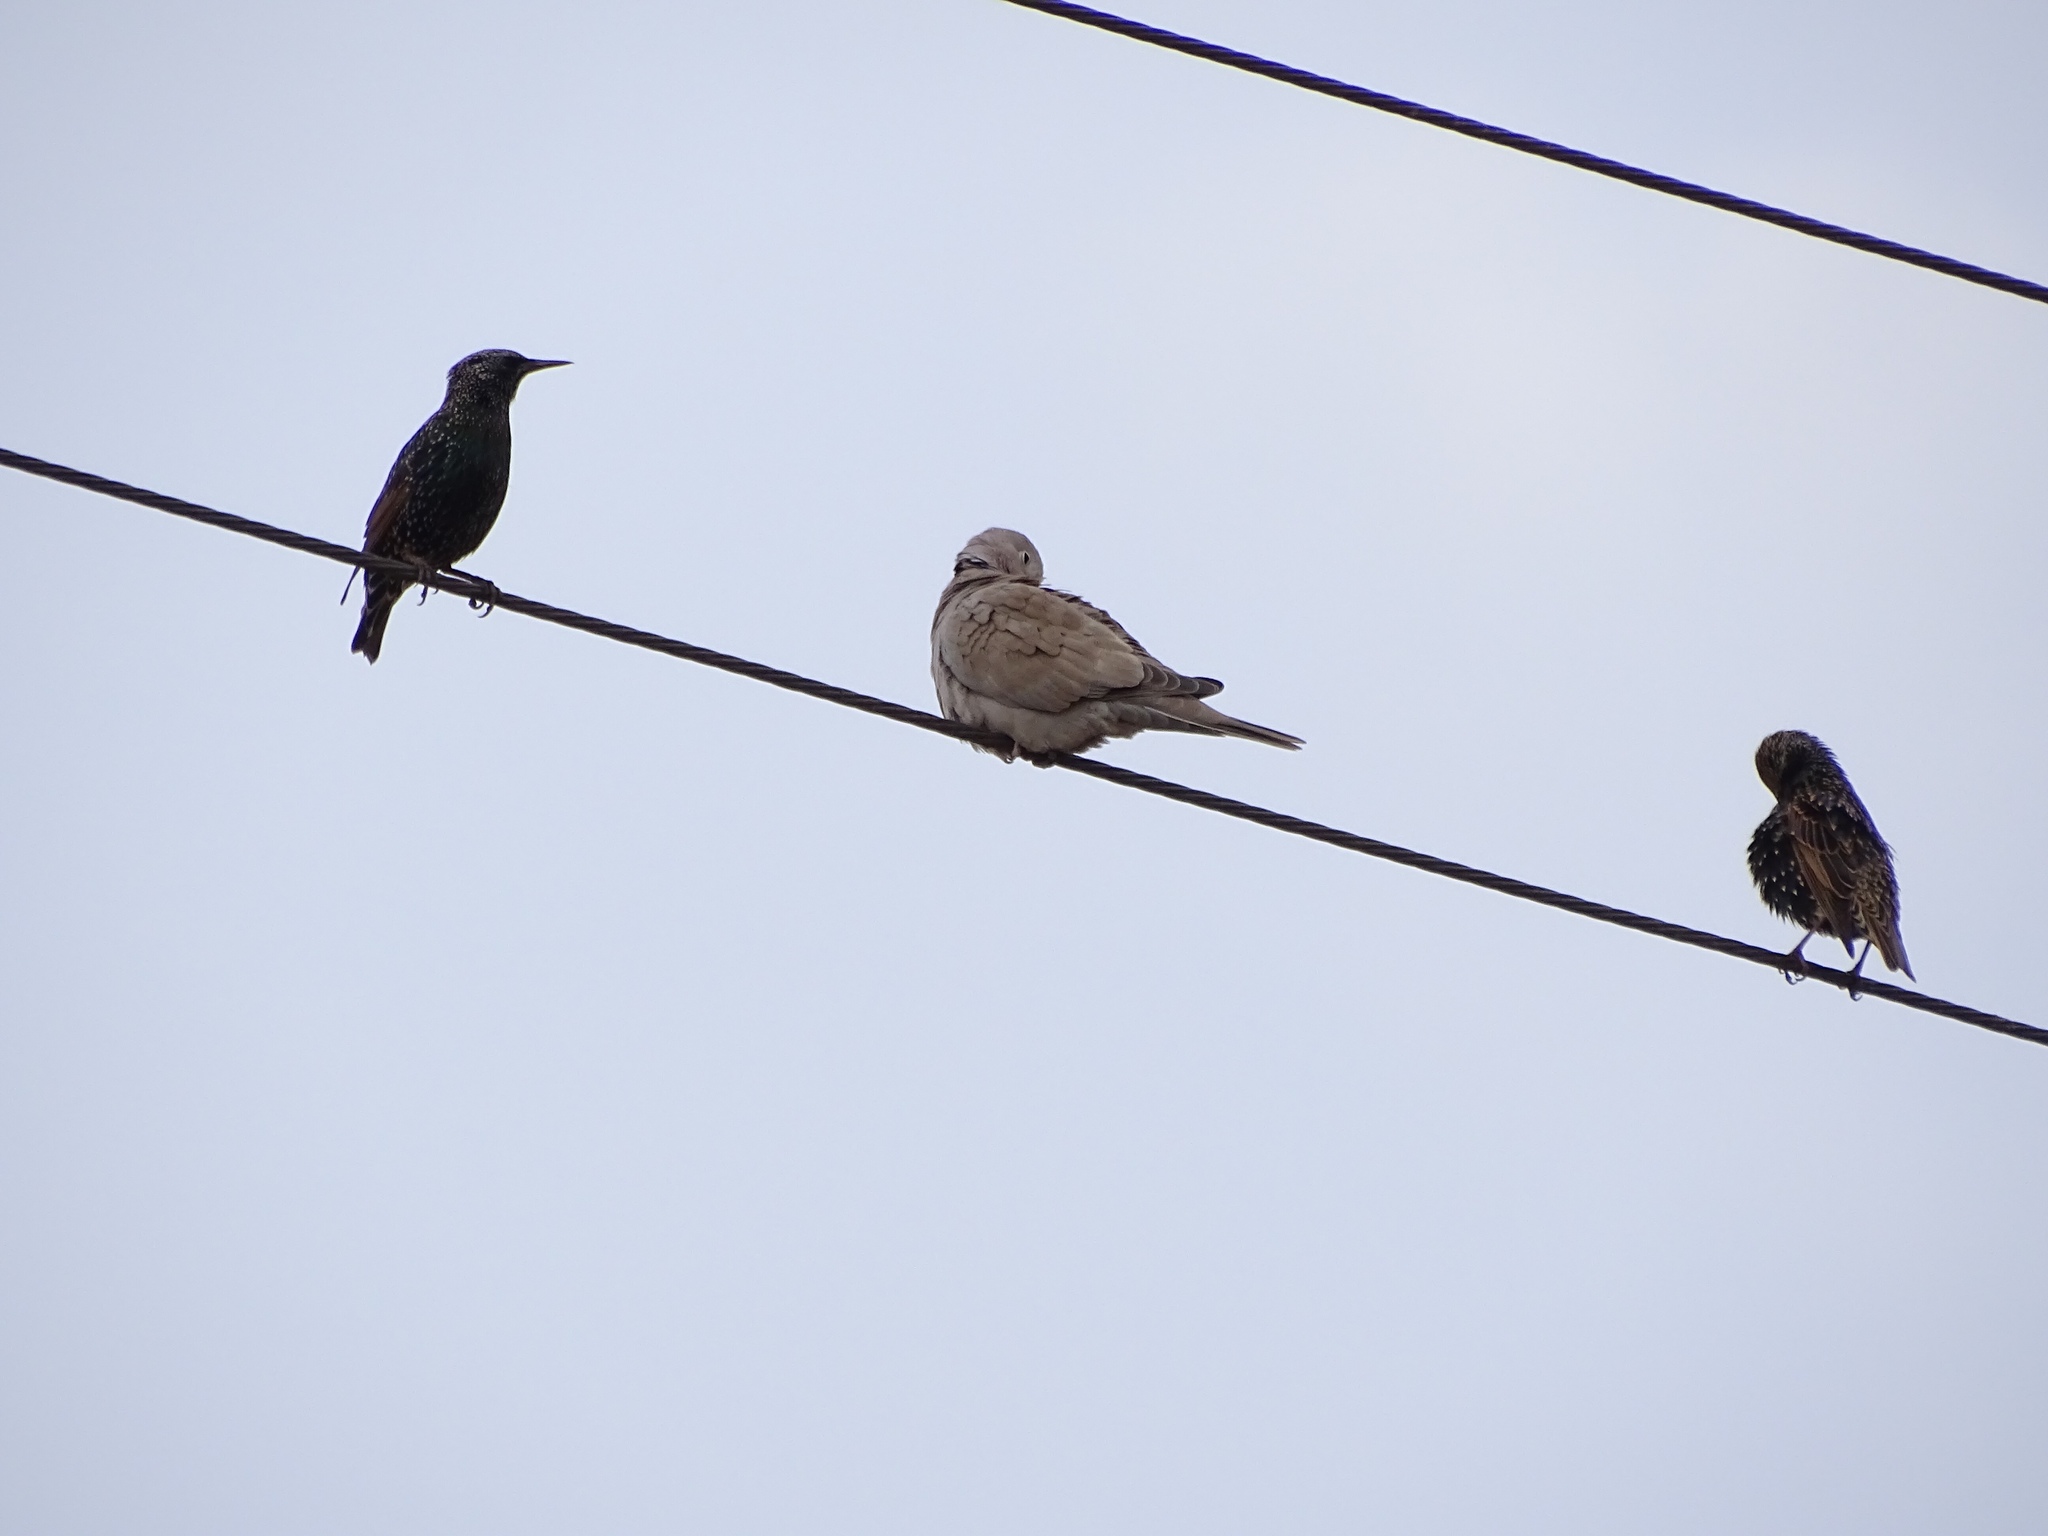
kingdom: Animalia
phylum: Chordata
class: Aves
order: Columbiformes
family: Columbidae
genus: Streptopelia
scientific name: Streptopelia decaocto
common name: Eurasian collared dove
